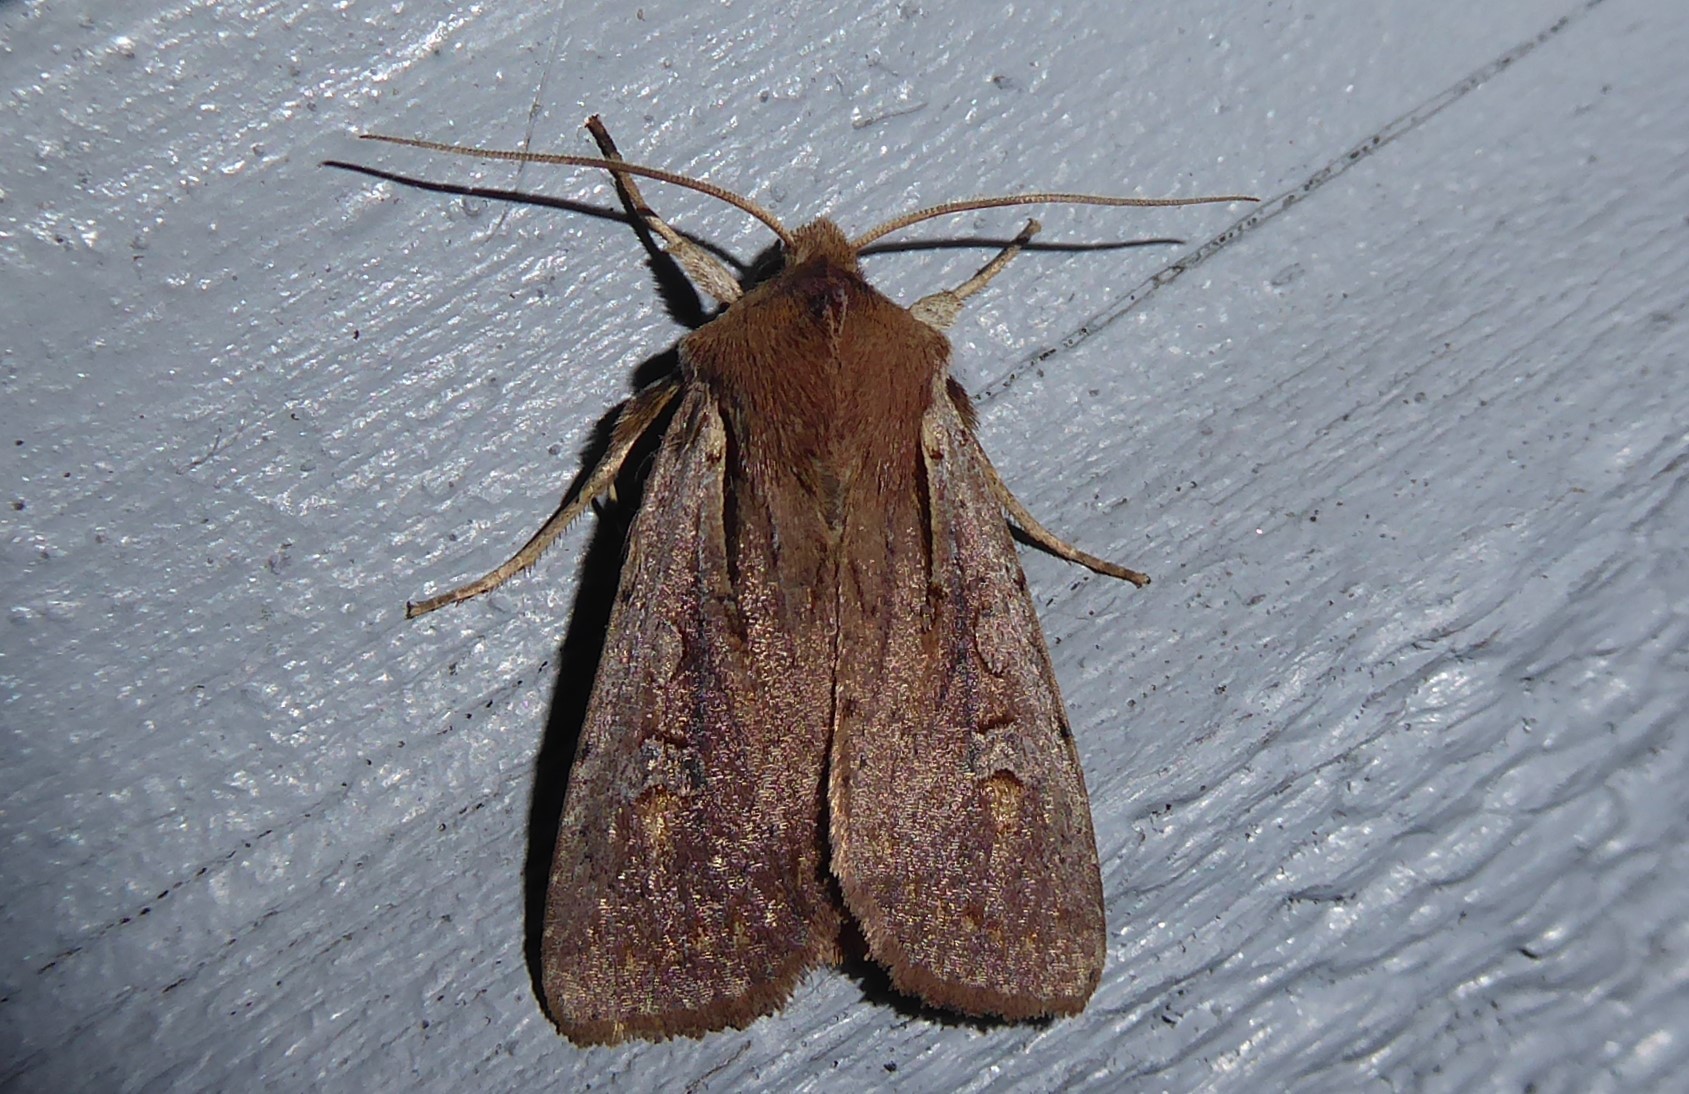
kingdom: Animalia
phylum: Arthropoda
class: Insecta
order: Lepidoptera
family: Noctuidae
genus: Ichneutica
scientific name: Ichneutica atristriga
